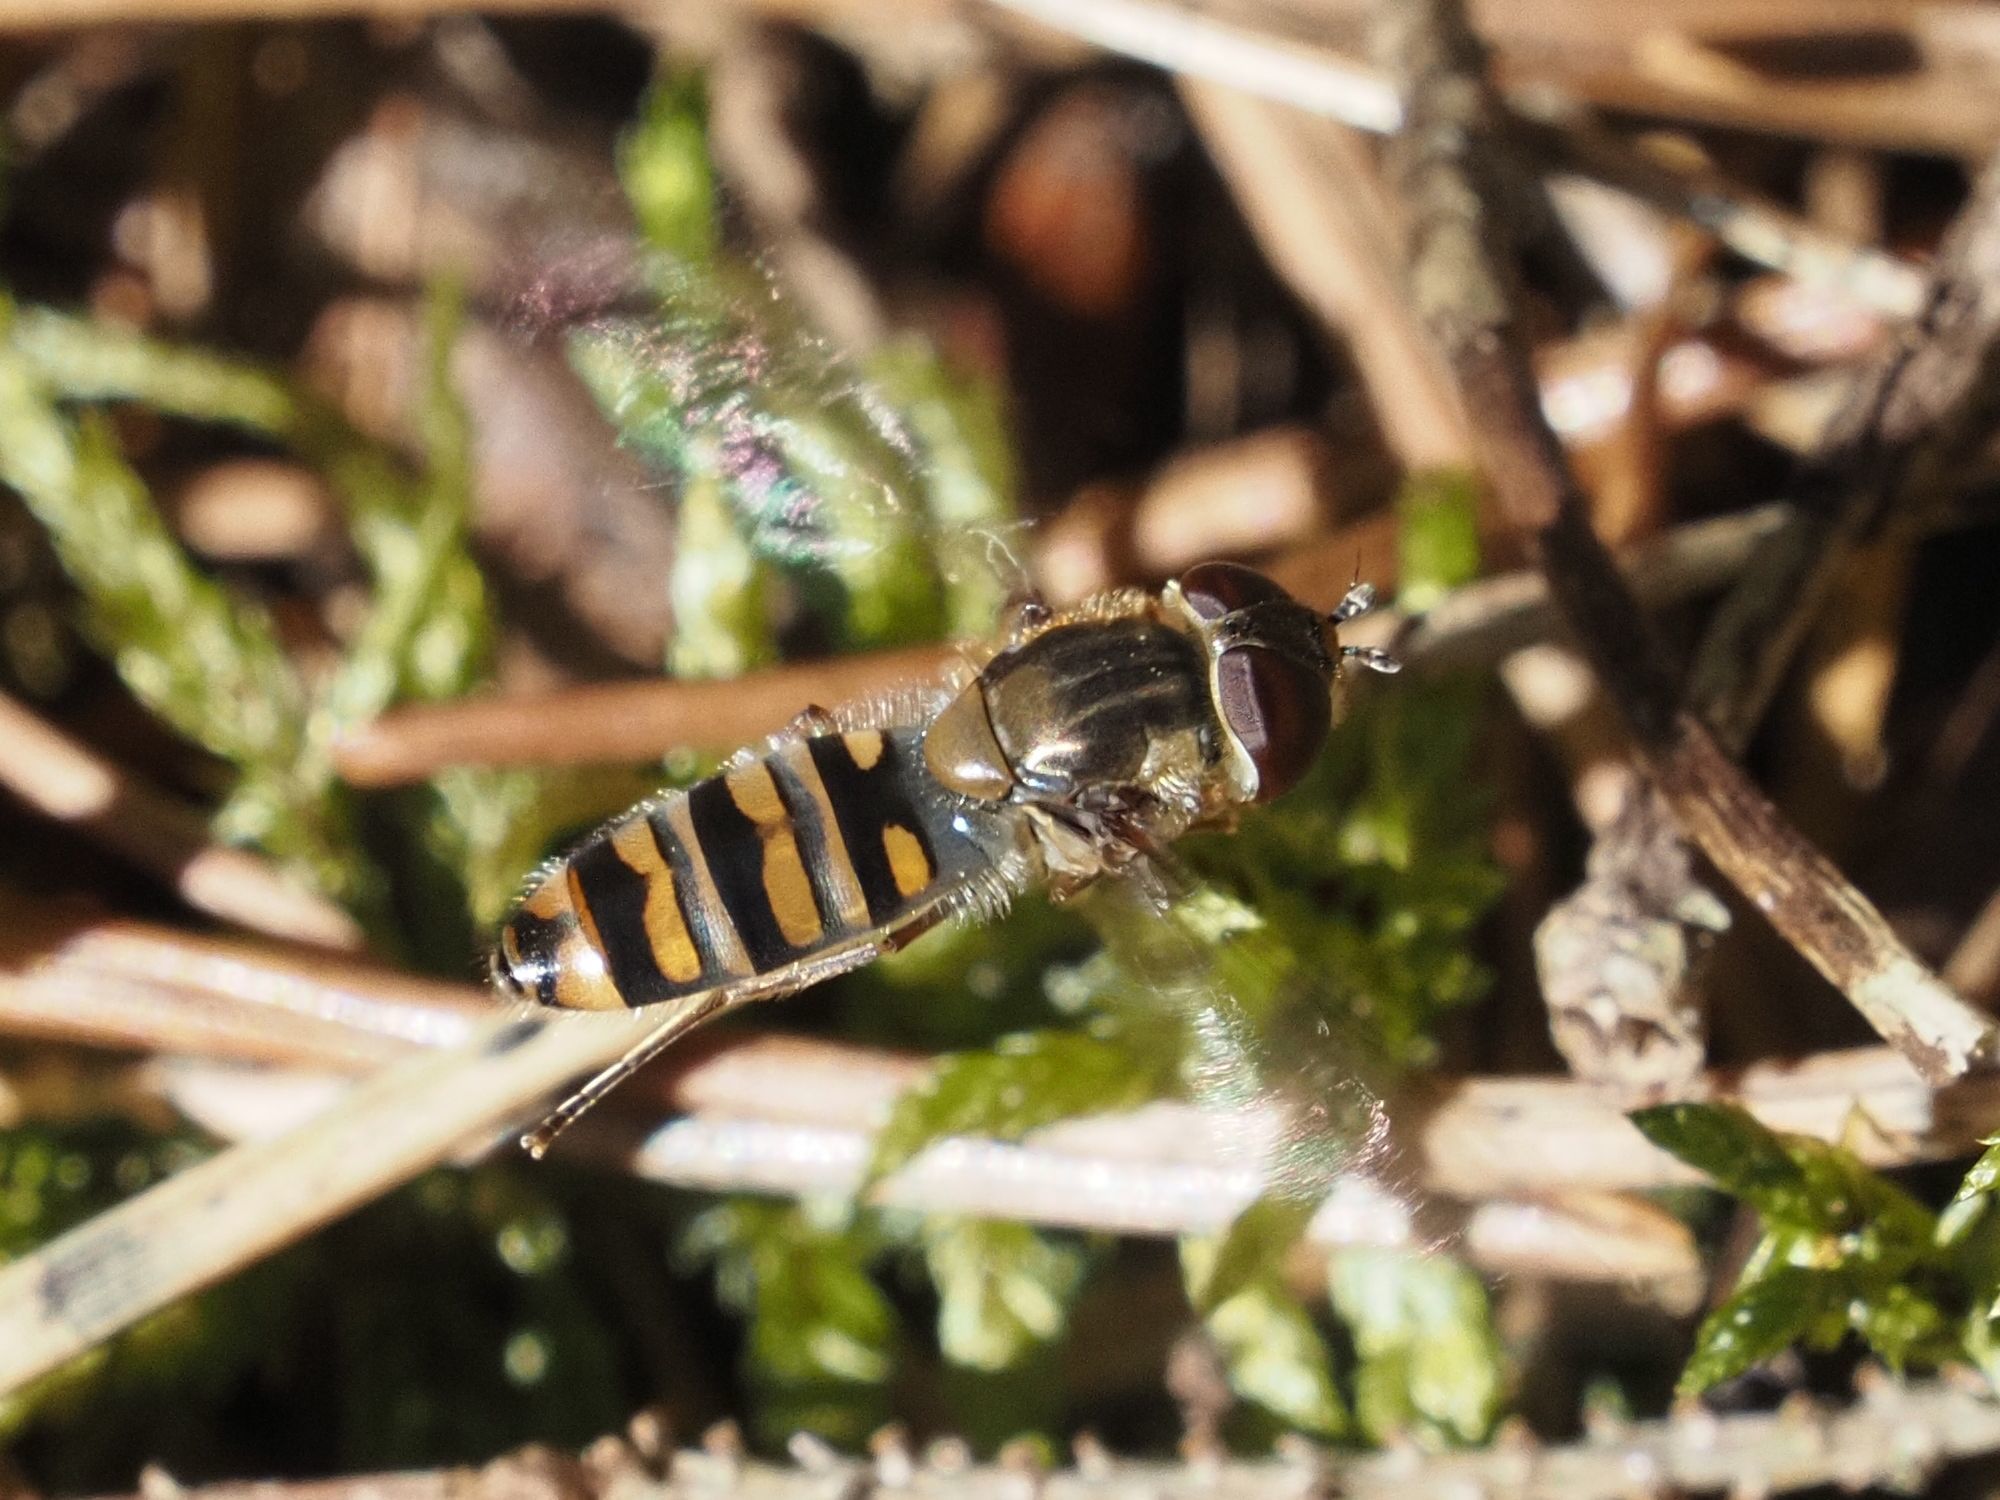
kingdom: Animalia
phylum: Arthropoda
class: Insecta
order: Diptera
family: Syrphidae
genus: Episyrphus
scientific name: Episyrphus balteatus
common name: Marmalade hoverfly
